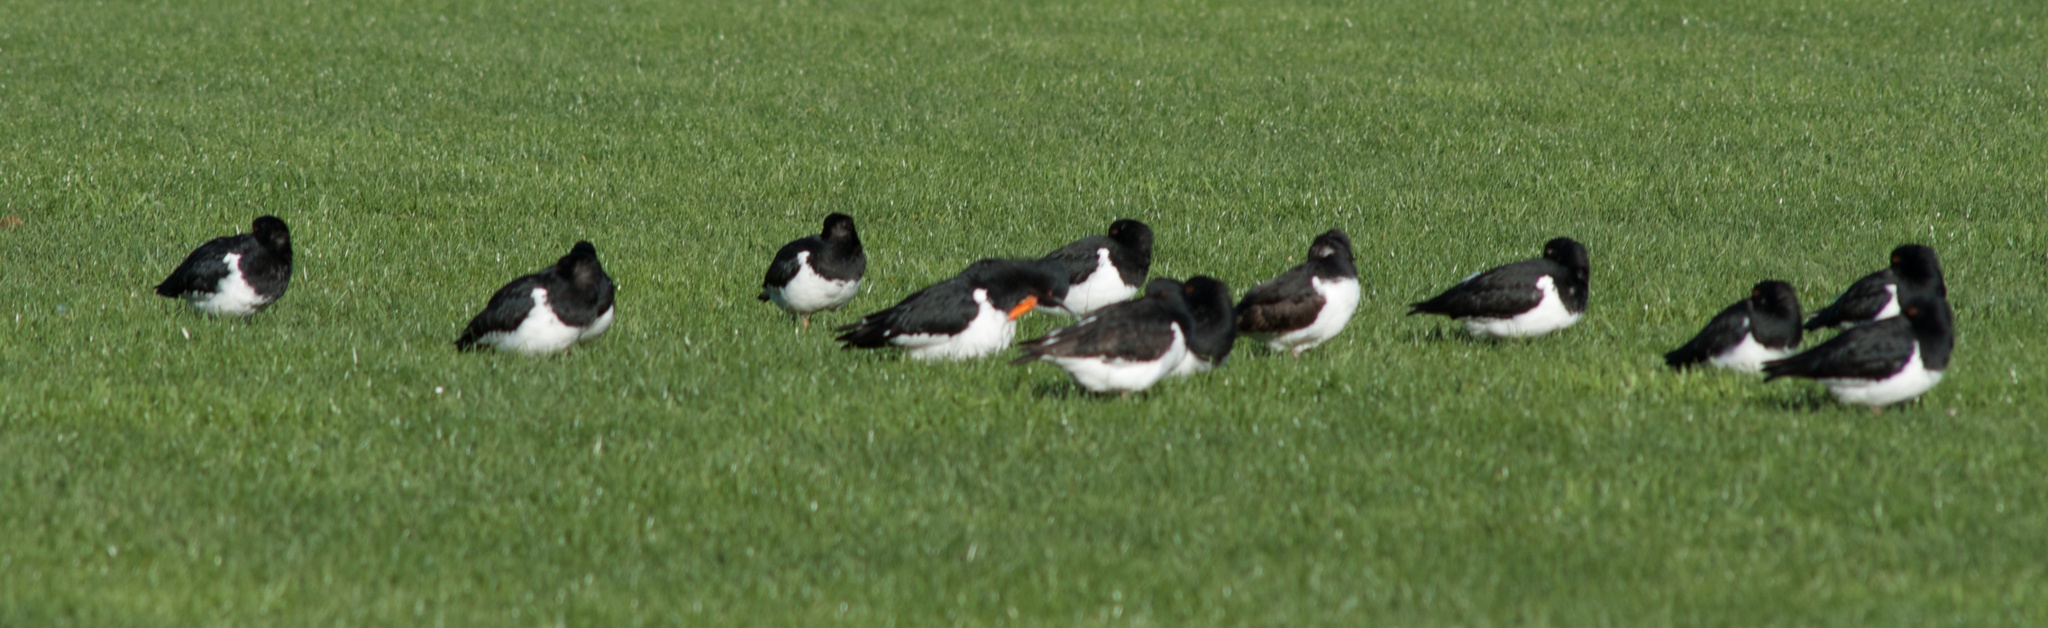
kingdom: Animalia
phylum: Chordata
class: Aves
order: Charadriiformes
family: Haematopodidae
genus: Haematopus
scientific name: Haematopus finschi
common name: South island oystercatcher
